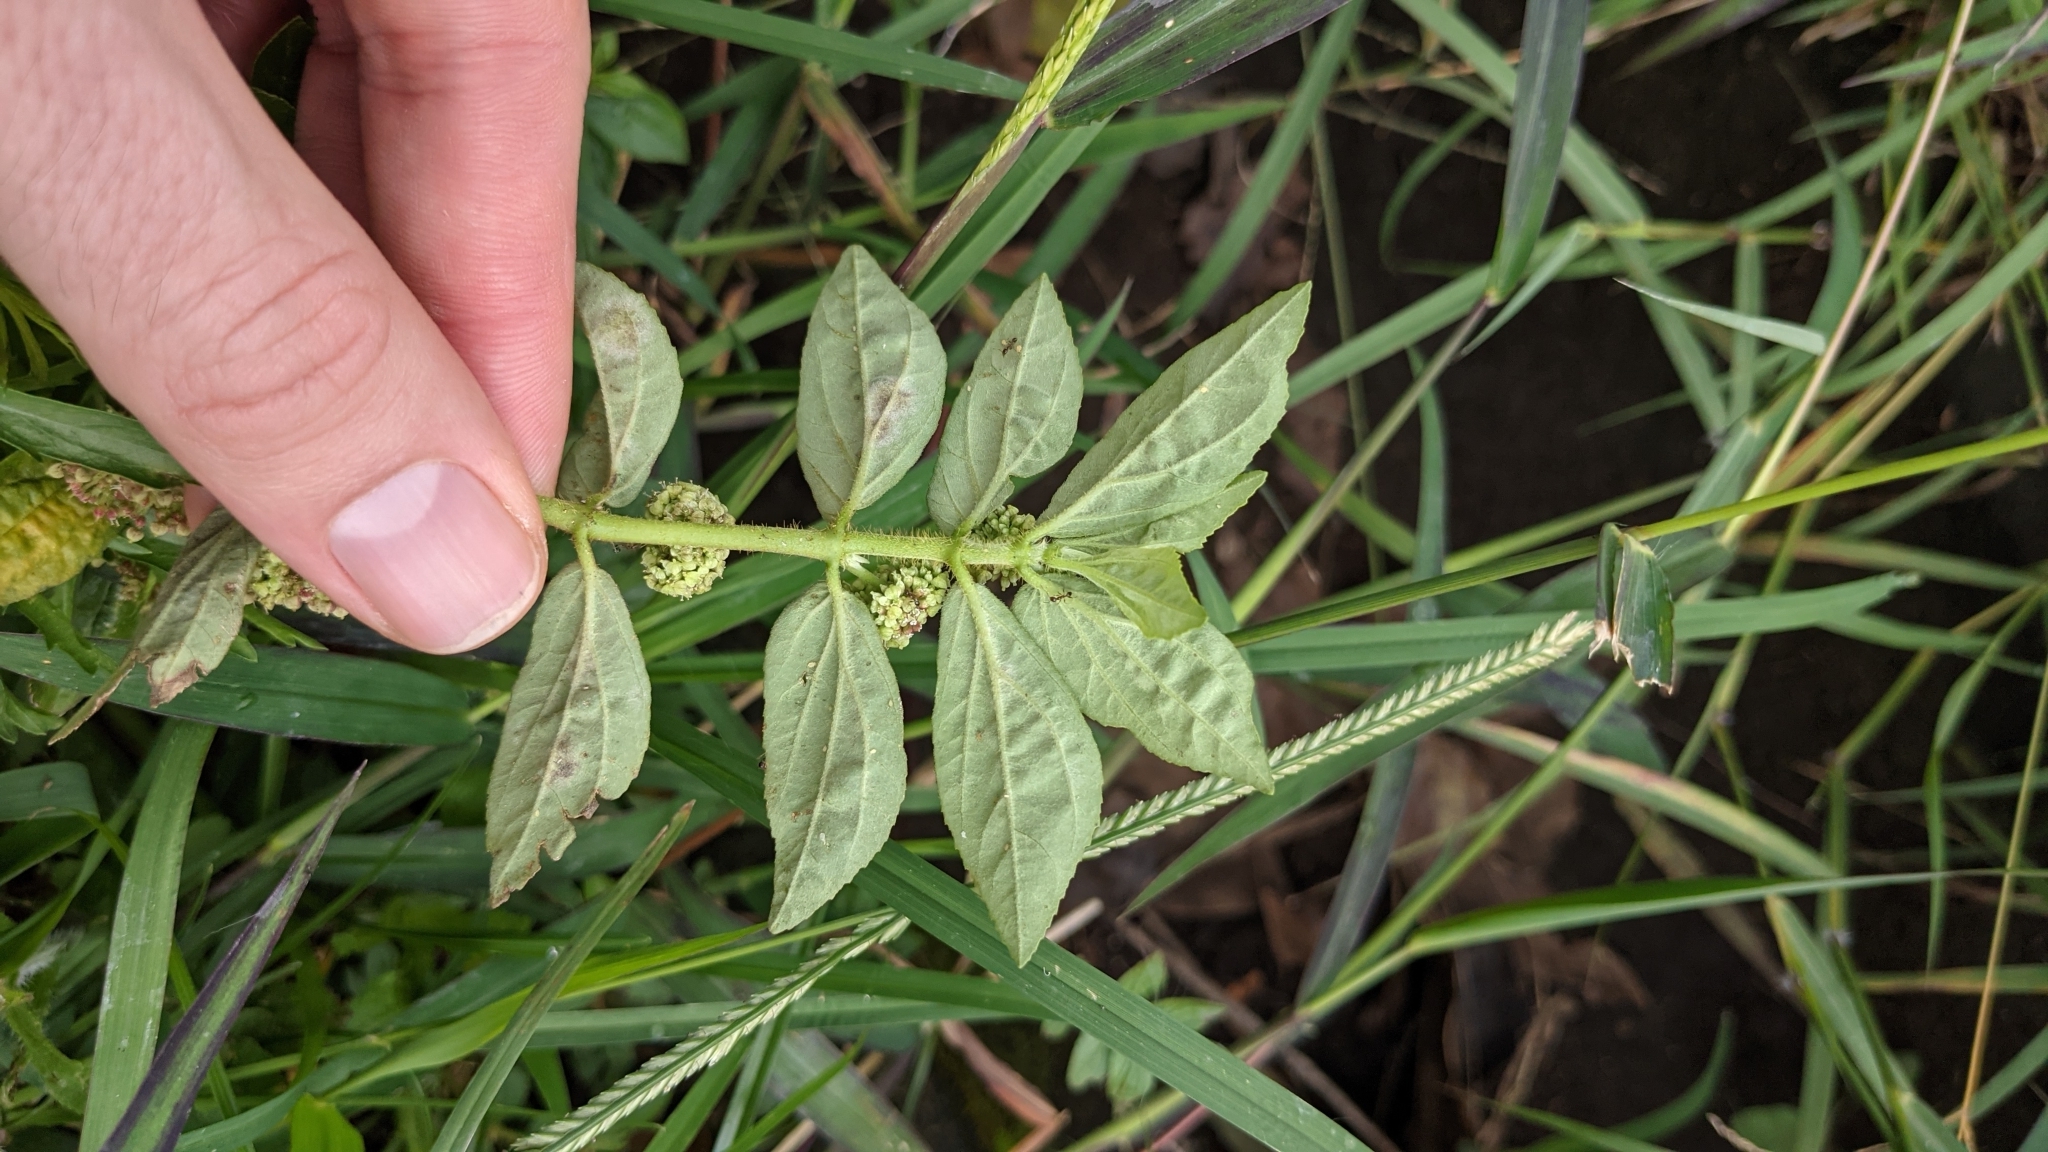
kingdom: Plantae
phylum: Tracheophyta
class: Magnoliopsida
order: Malpighiales
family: Euphorbiaceae
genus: Euphorbia
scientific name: Euphorbia hirta
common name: Pillpod sandmat
